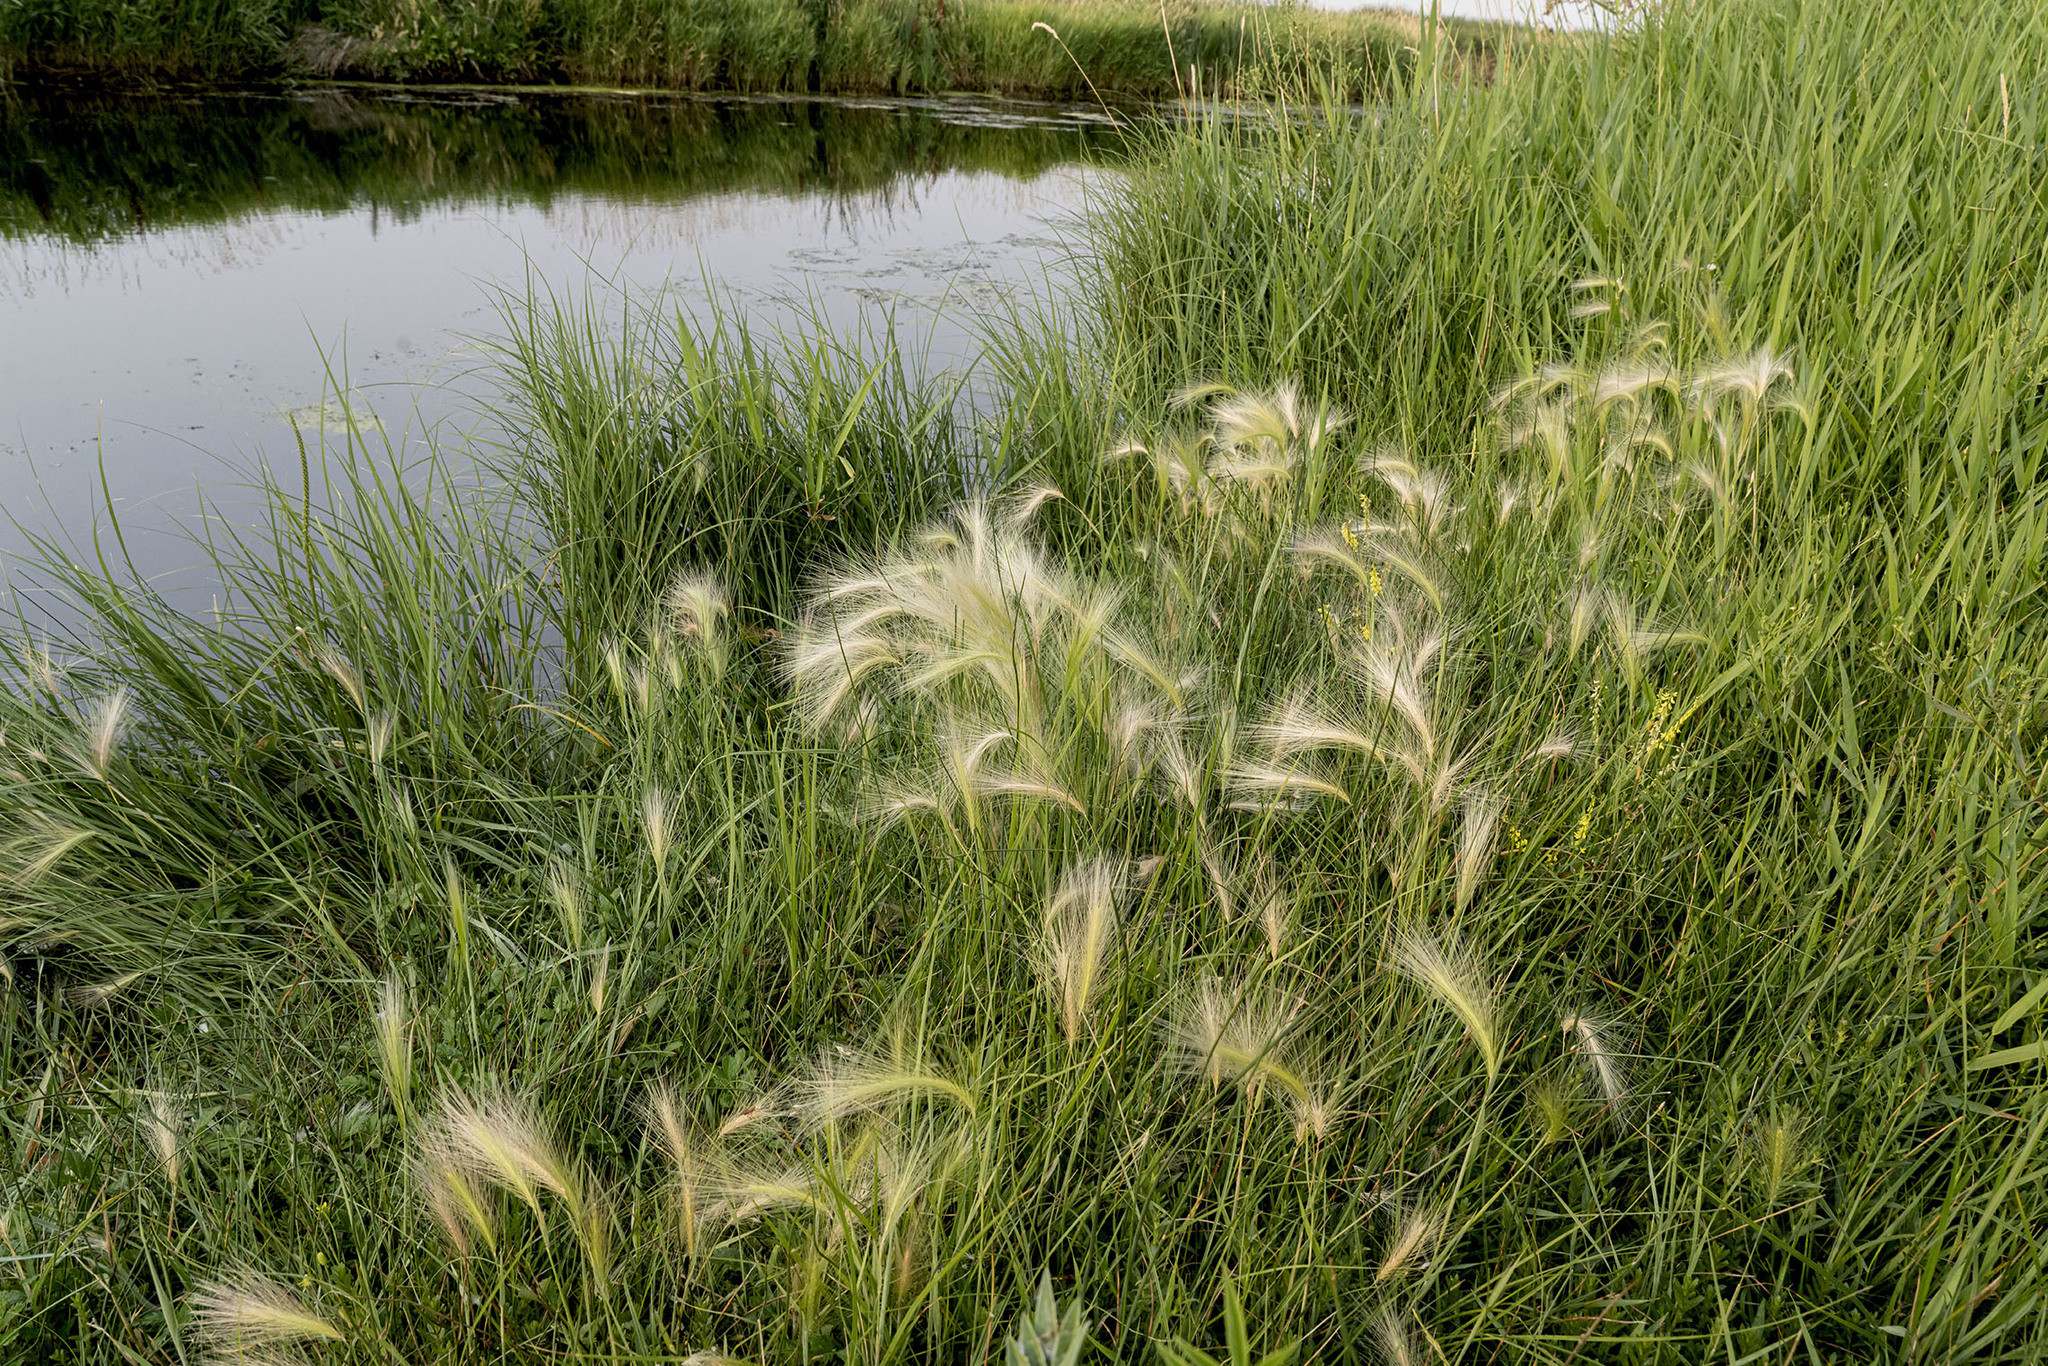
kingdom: Plantae
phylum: Tracheophyta
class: Liliopsida
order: Poales
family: Poaceae
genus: Hordeum
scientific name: Hordeum jubatum
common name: Foxtail barley
